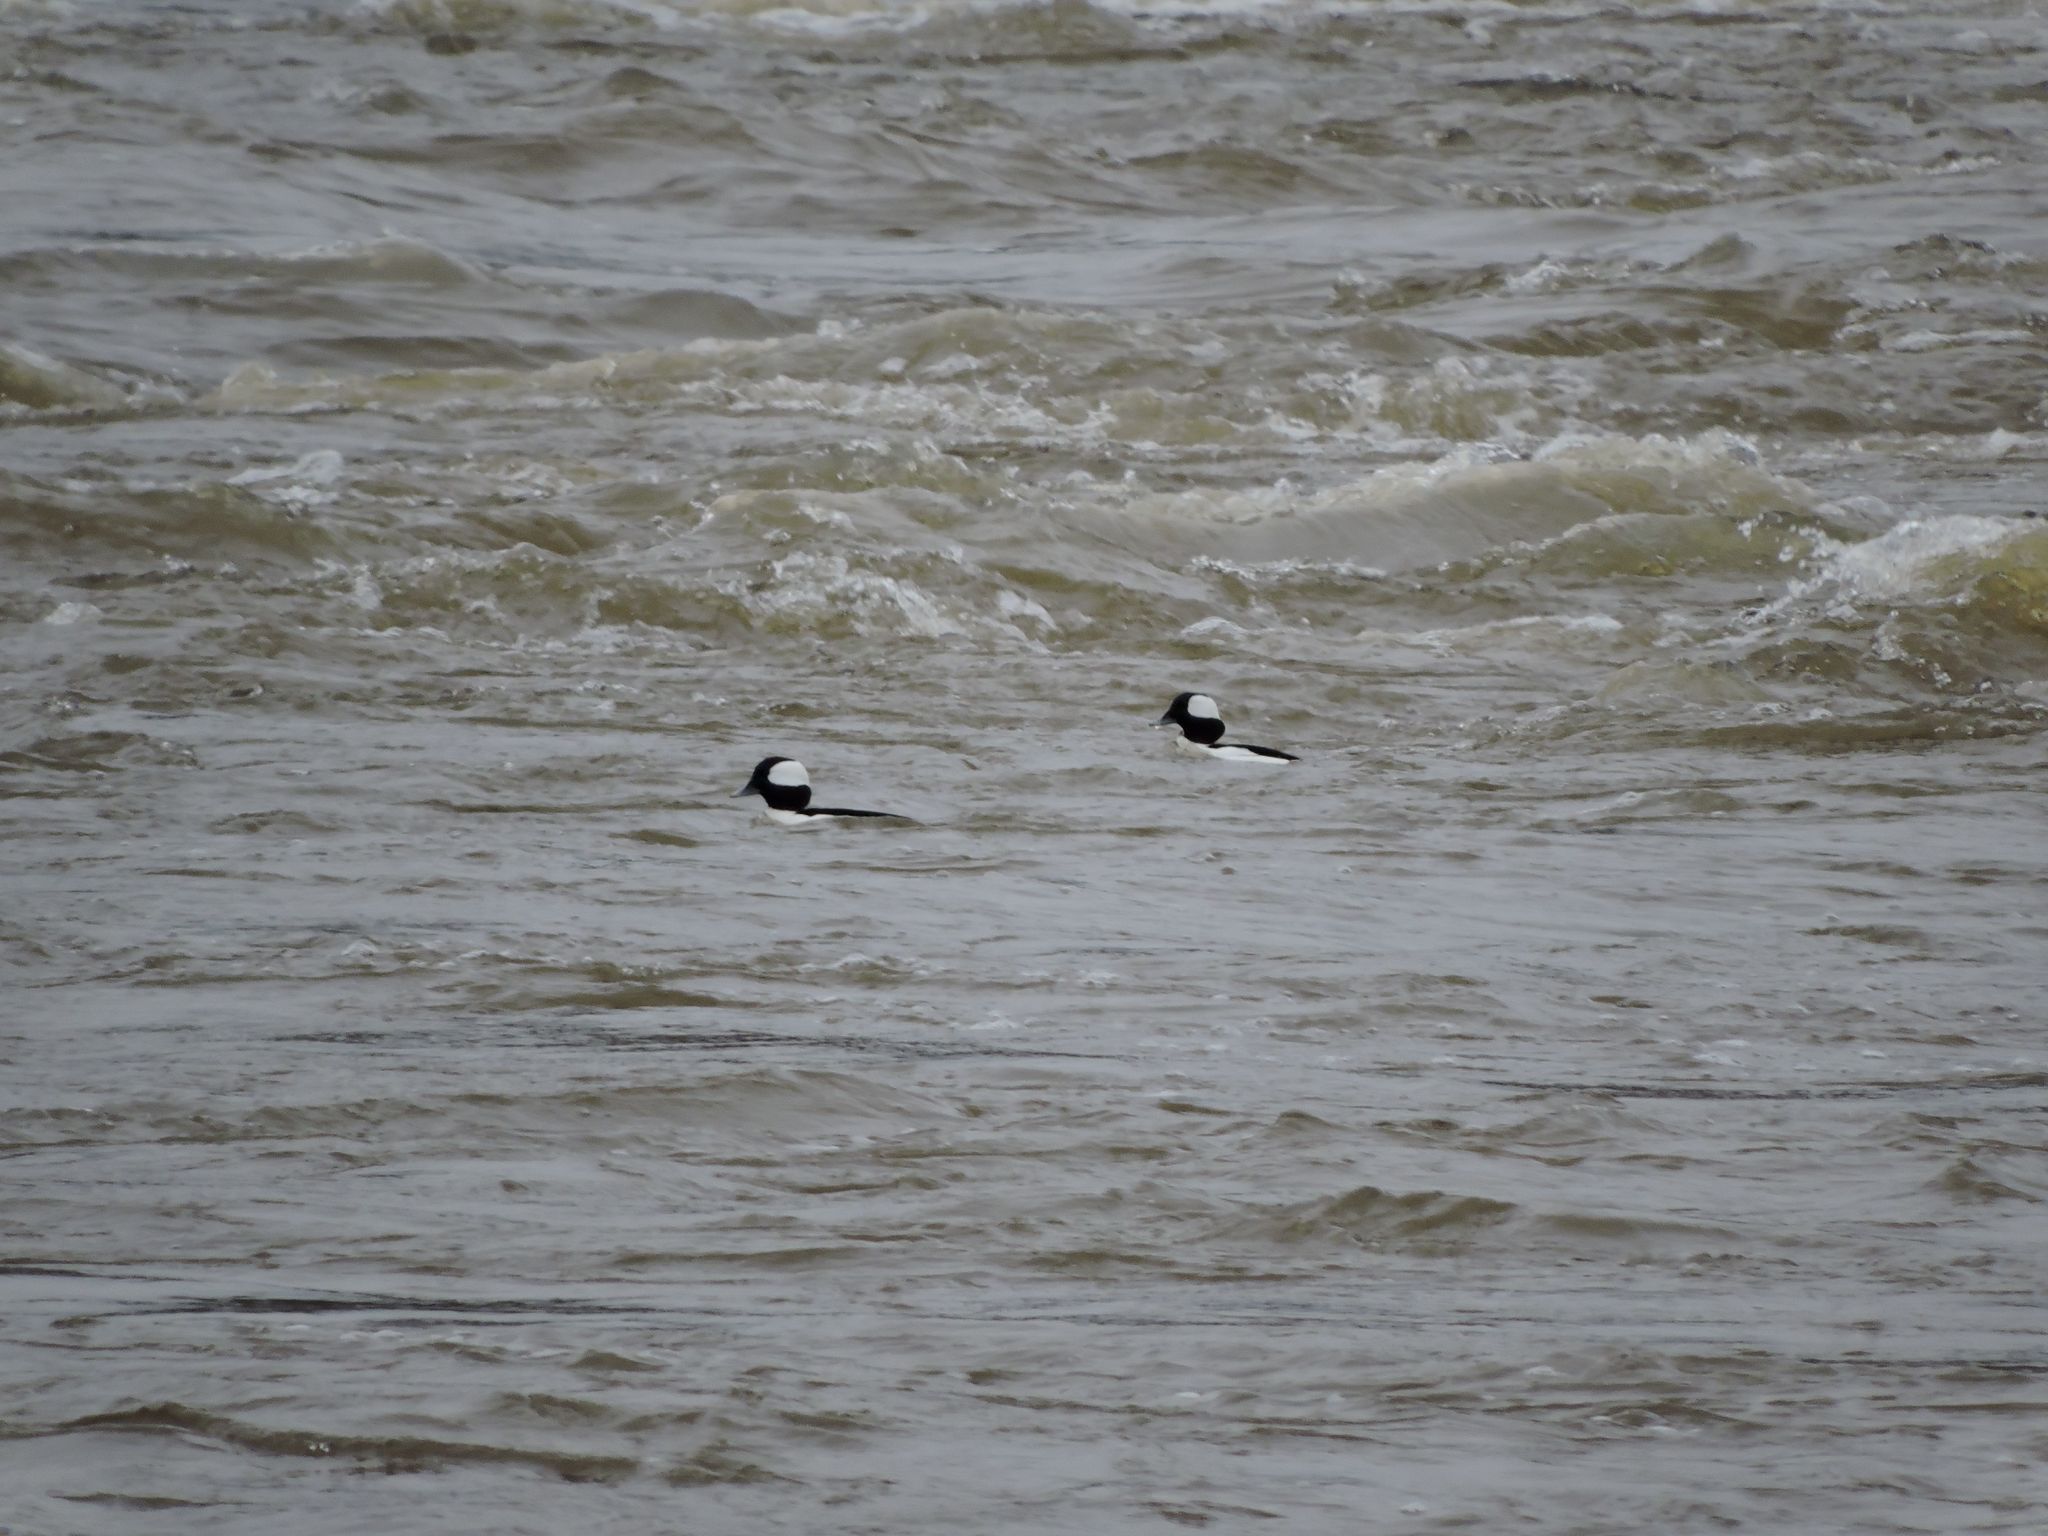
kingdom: Animalia
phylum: Chordata
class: Aves
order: Anseriformes
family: Anatidae
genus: Bucephala
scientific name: Bucephala albeola
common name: Bufflehead
